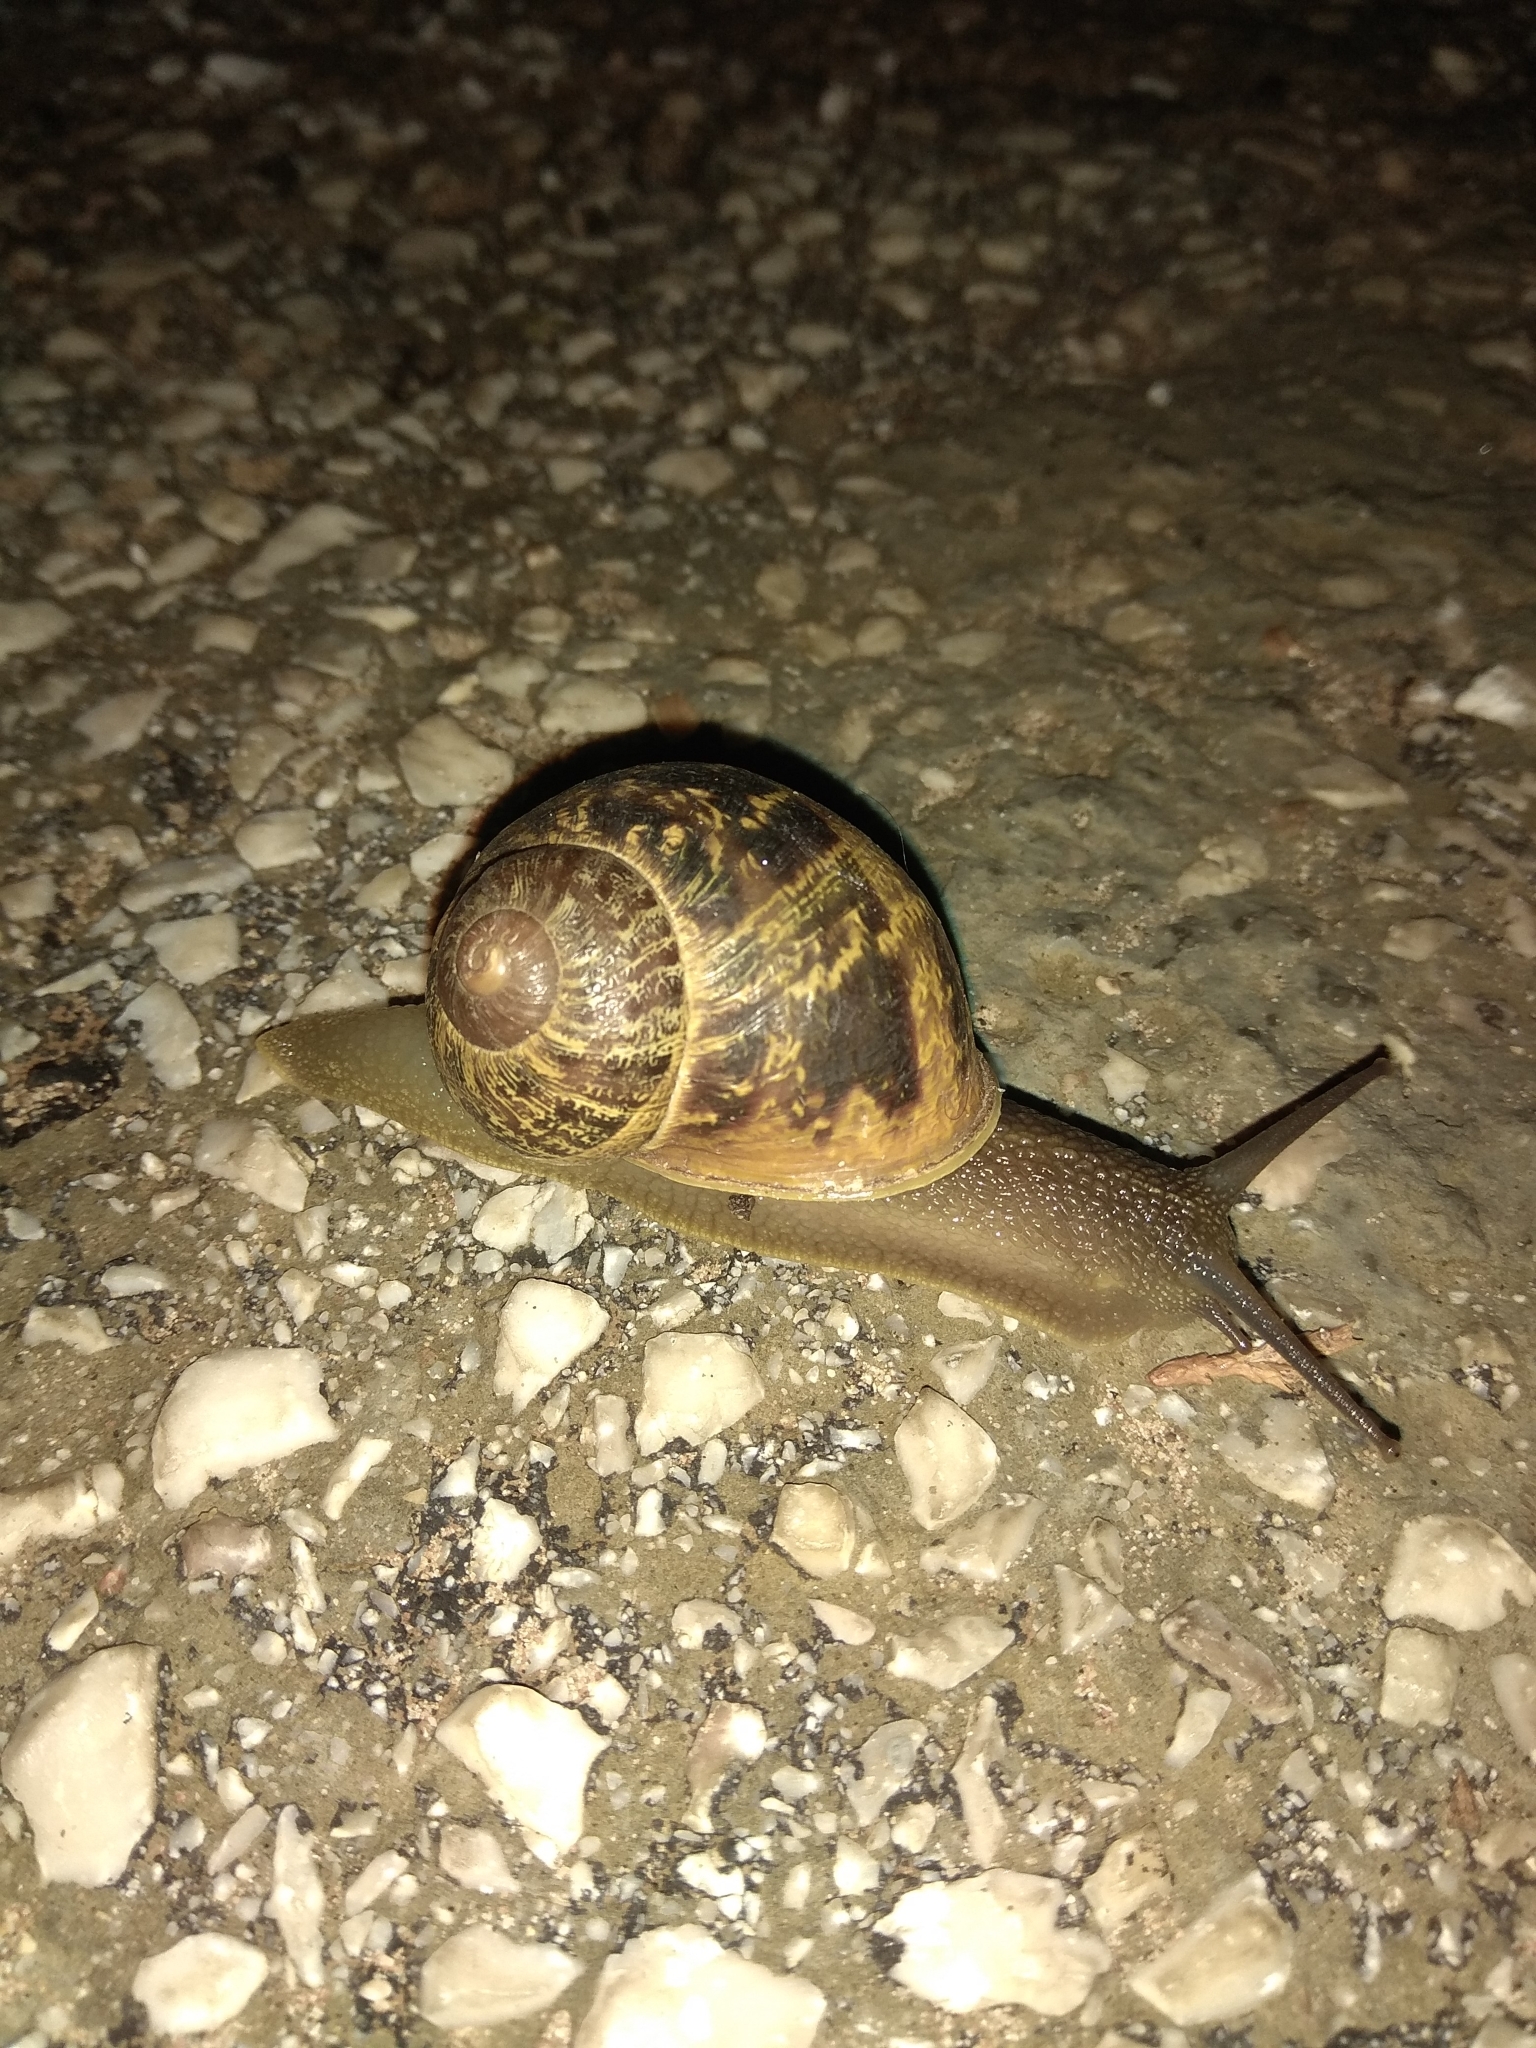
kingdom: Animalia
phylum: Mollusca
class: Gastropoda
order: Stylommatophora
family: Helicidae
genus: Cornu
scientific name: Cornu aspersum
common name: Brown garden snail
